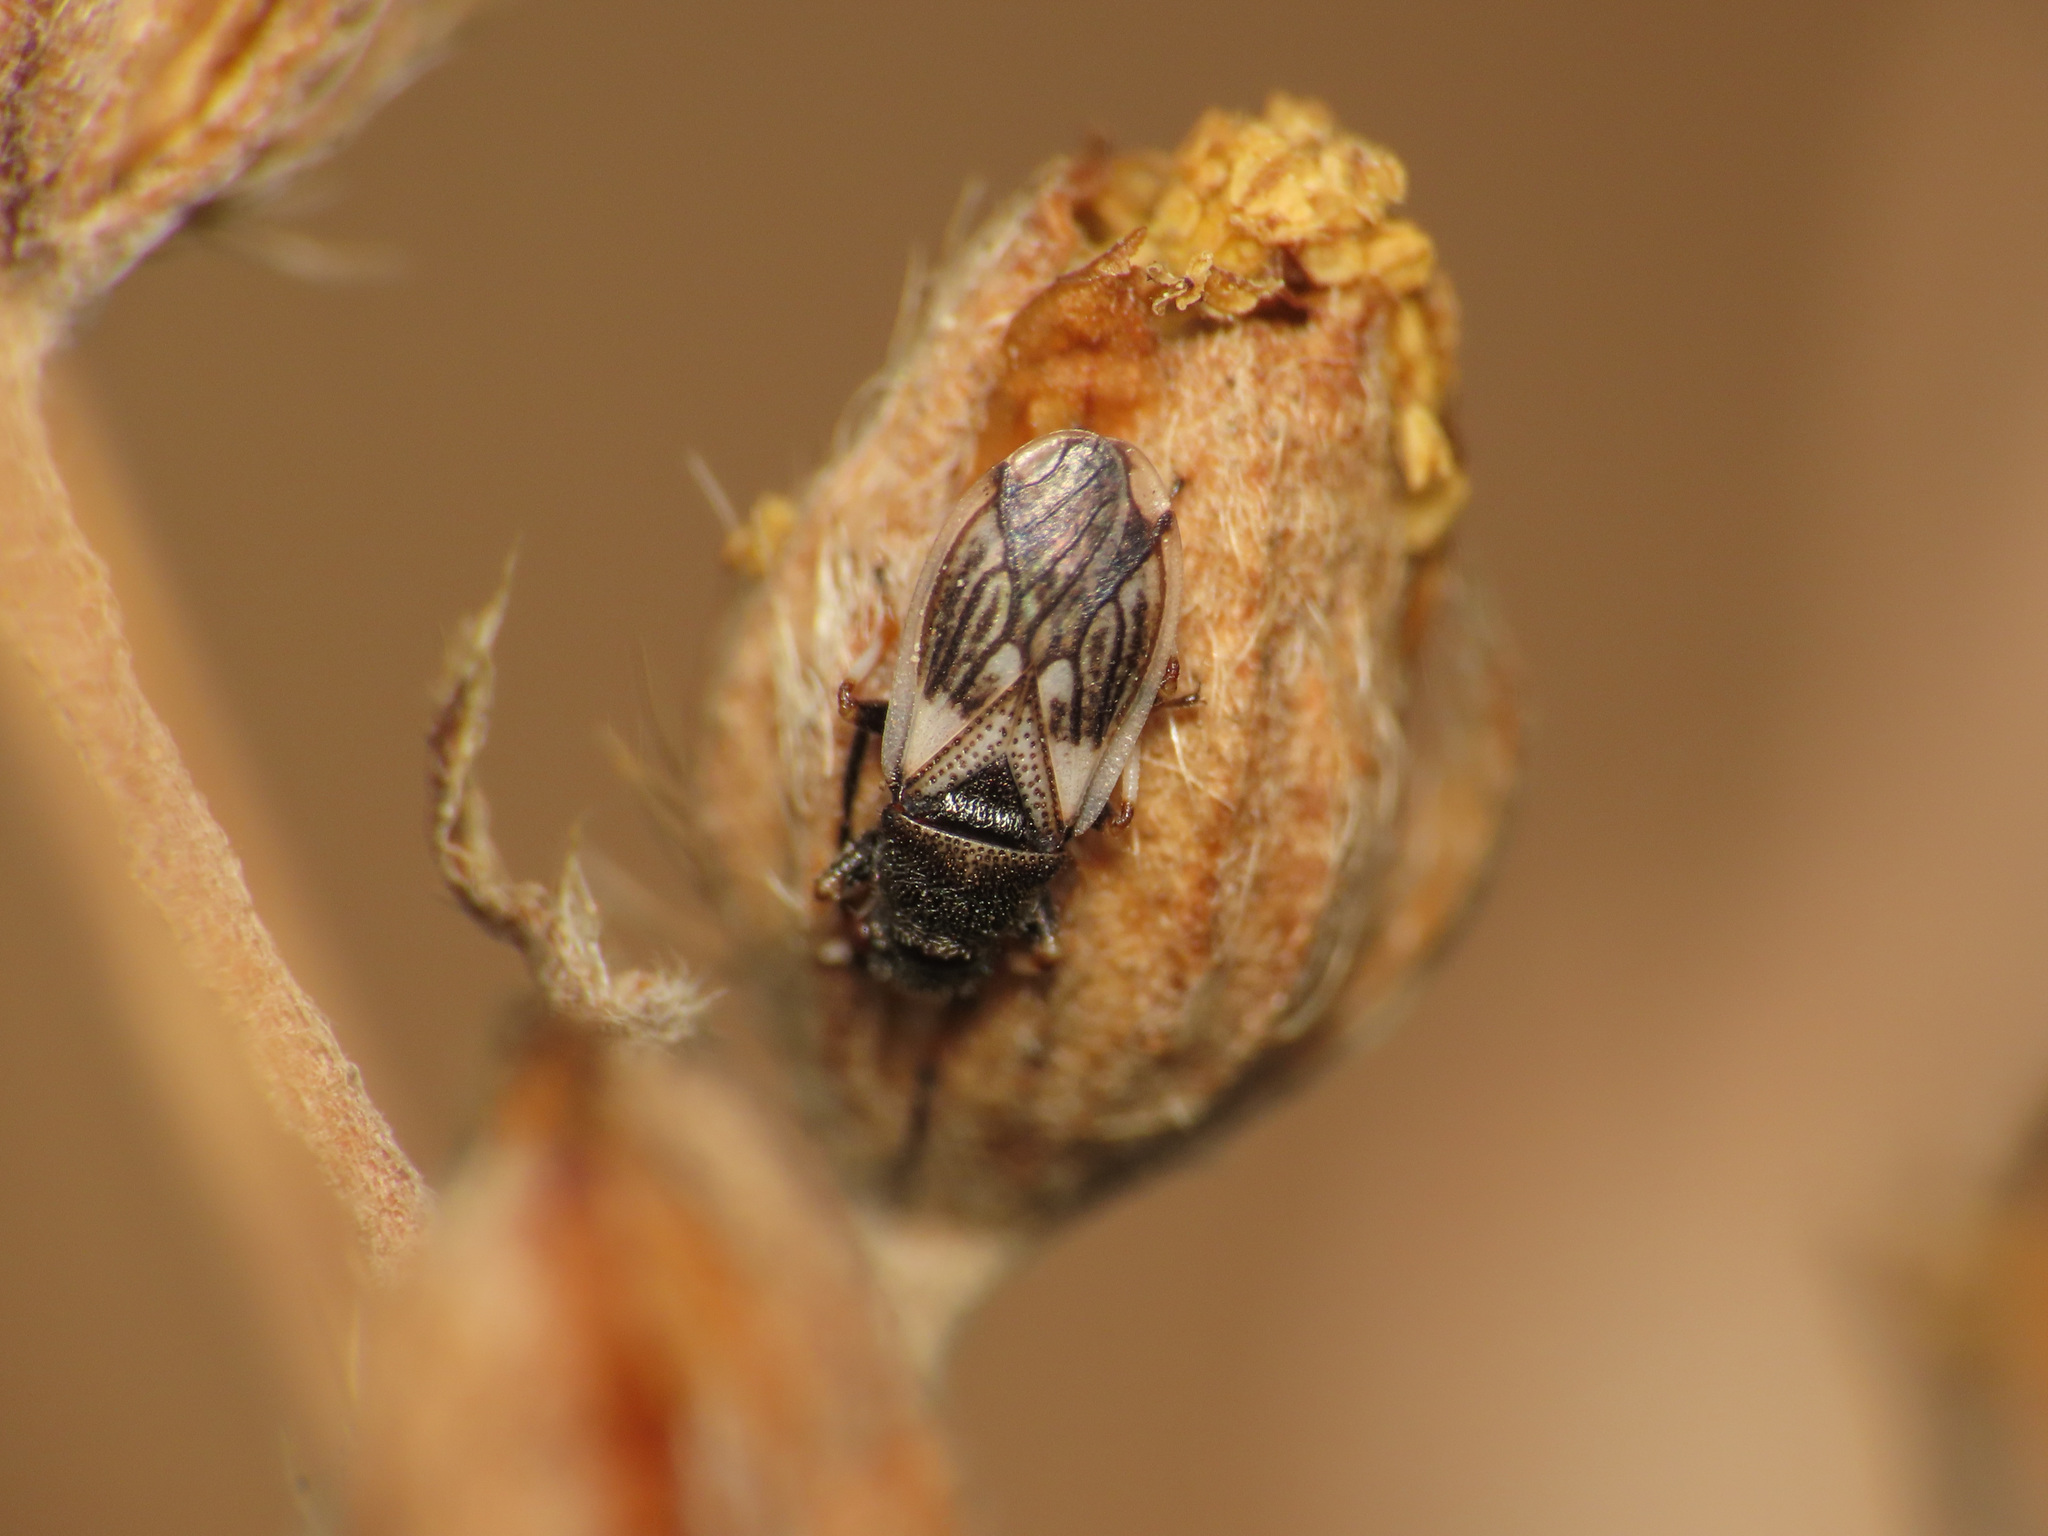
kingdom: Animalia
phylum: Arthropoda
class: Insecta
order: Hemiptera
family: Oxycarenidae
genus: Macroplax
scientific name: Macroplax preyssleri
